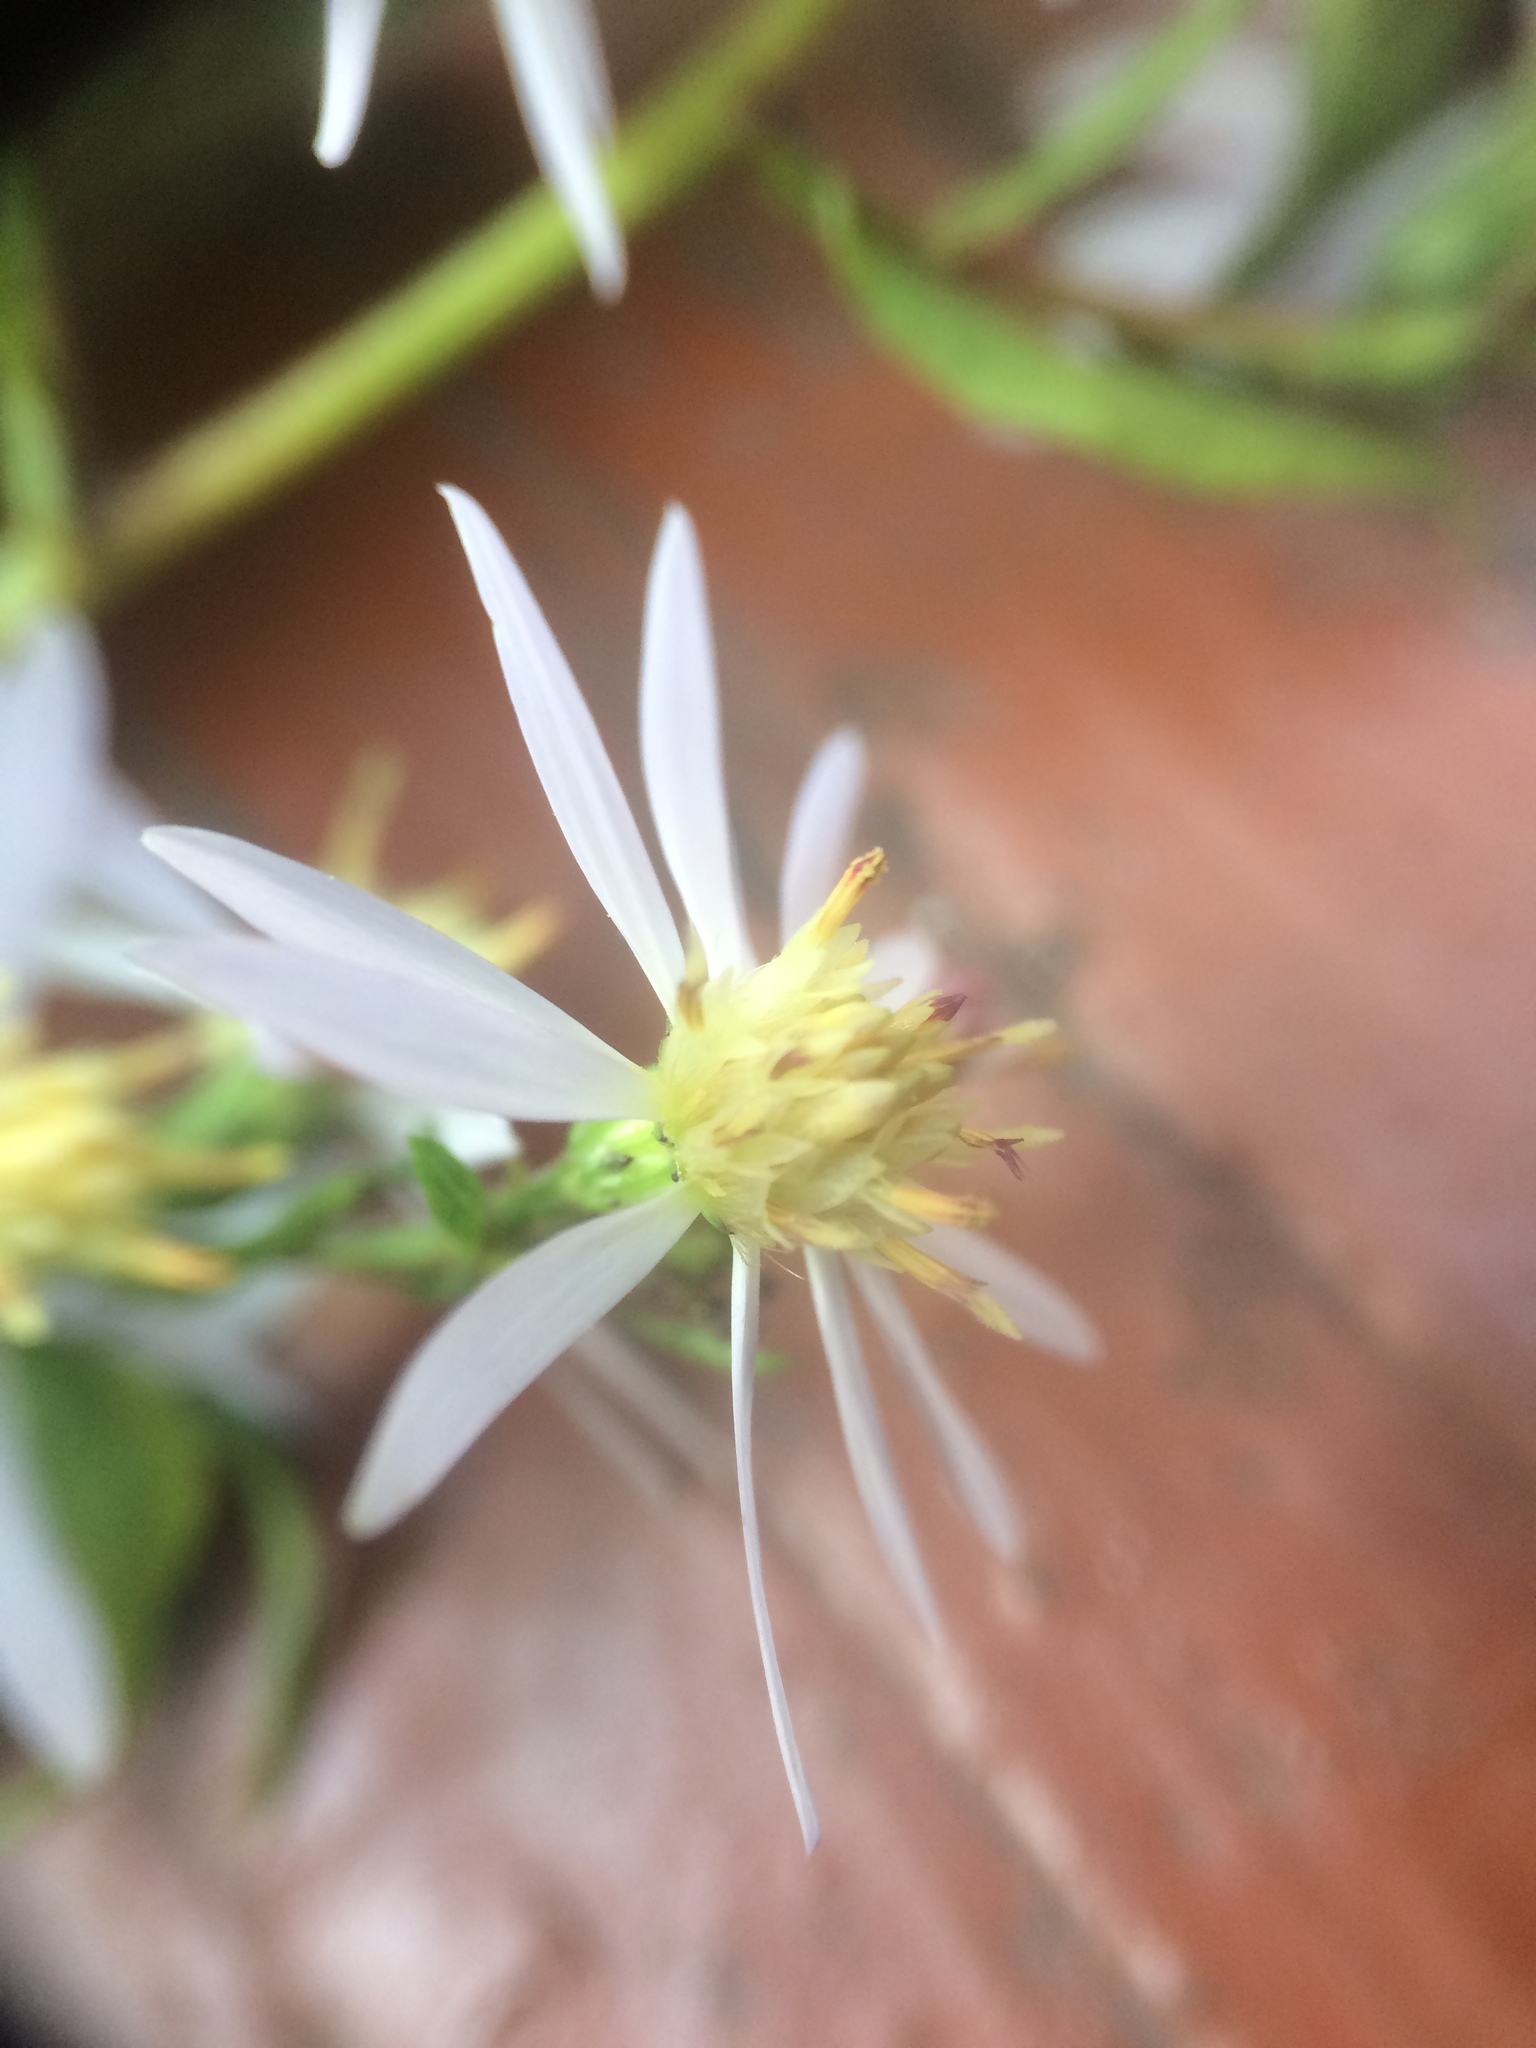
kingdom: Plantae
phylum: Tracheophyta
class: Magnoliopsida
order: Asterales
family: Asteraceae
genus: Symphyotrichum
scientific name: Symphyotrichum cordifolium
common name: Beeweed
